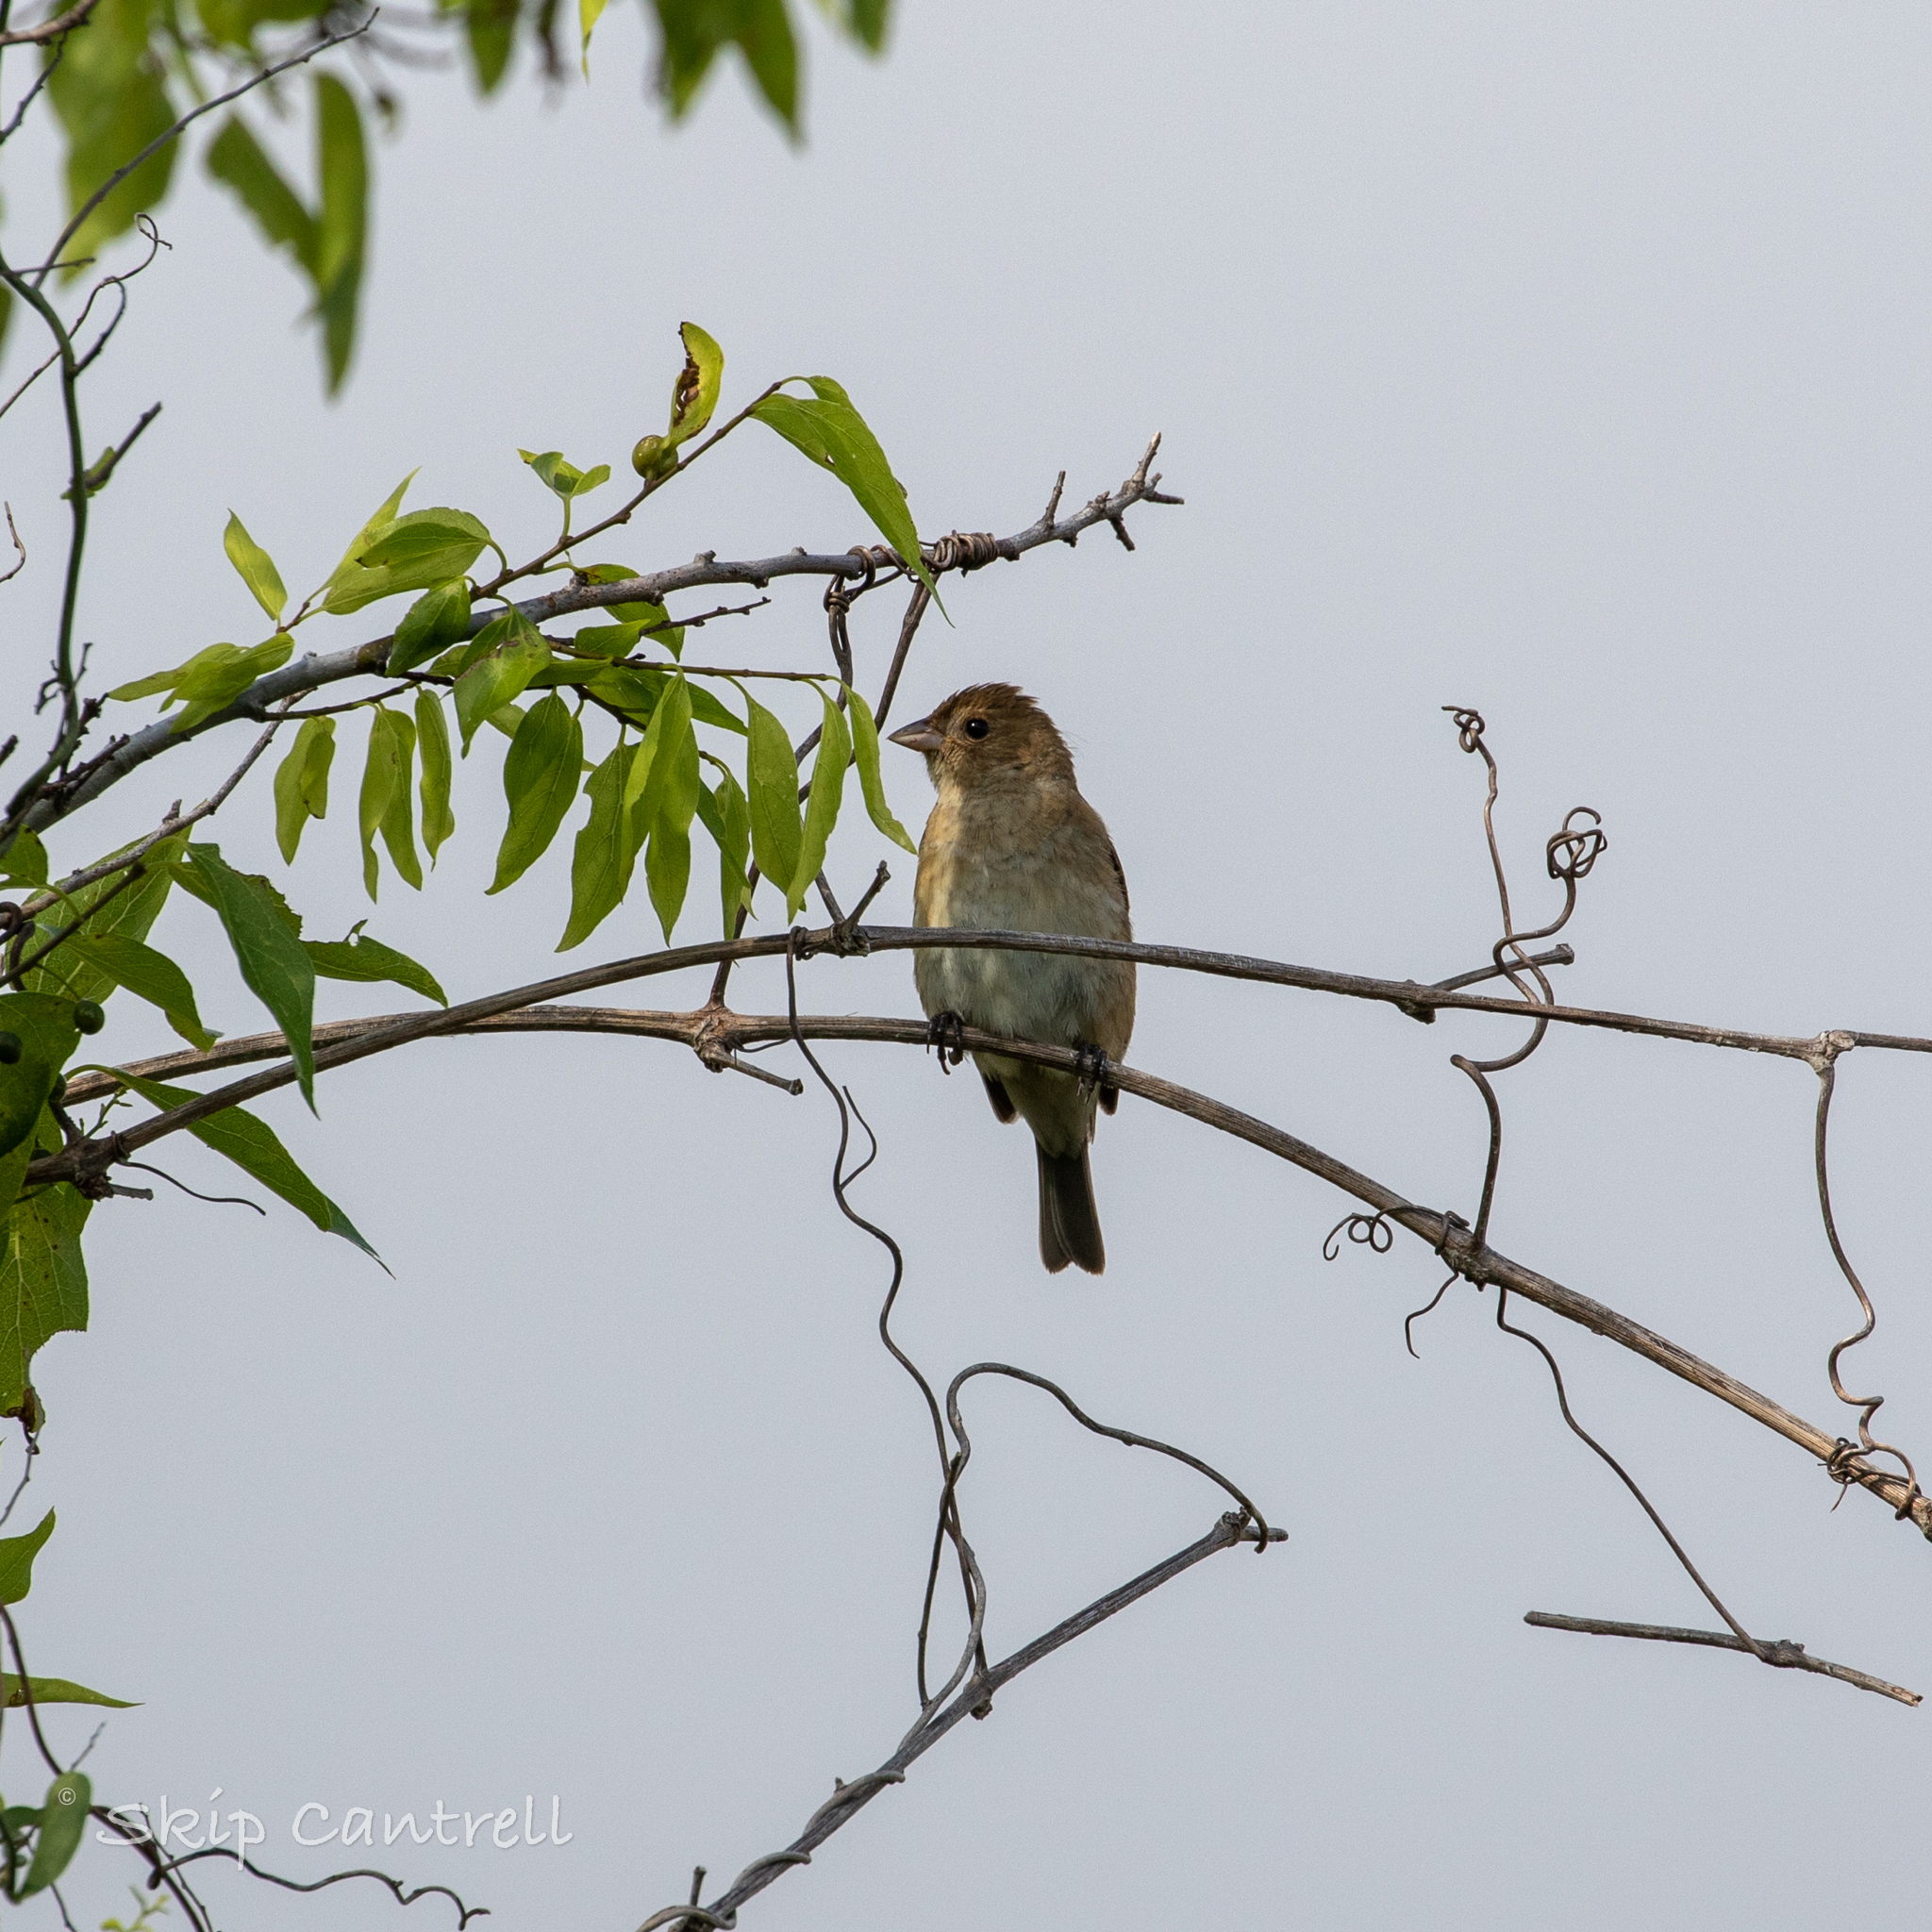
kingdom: Animalia
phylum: Chordata
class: Aves
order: Passeriformes
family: Cardinalidae
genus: Passerina
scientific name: Passerina cyanea
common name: Indigo bunting
